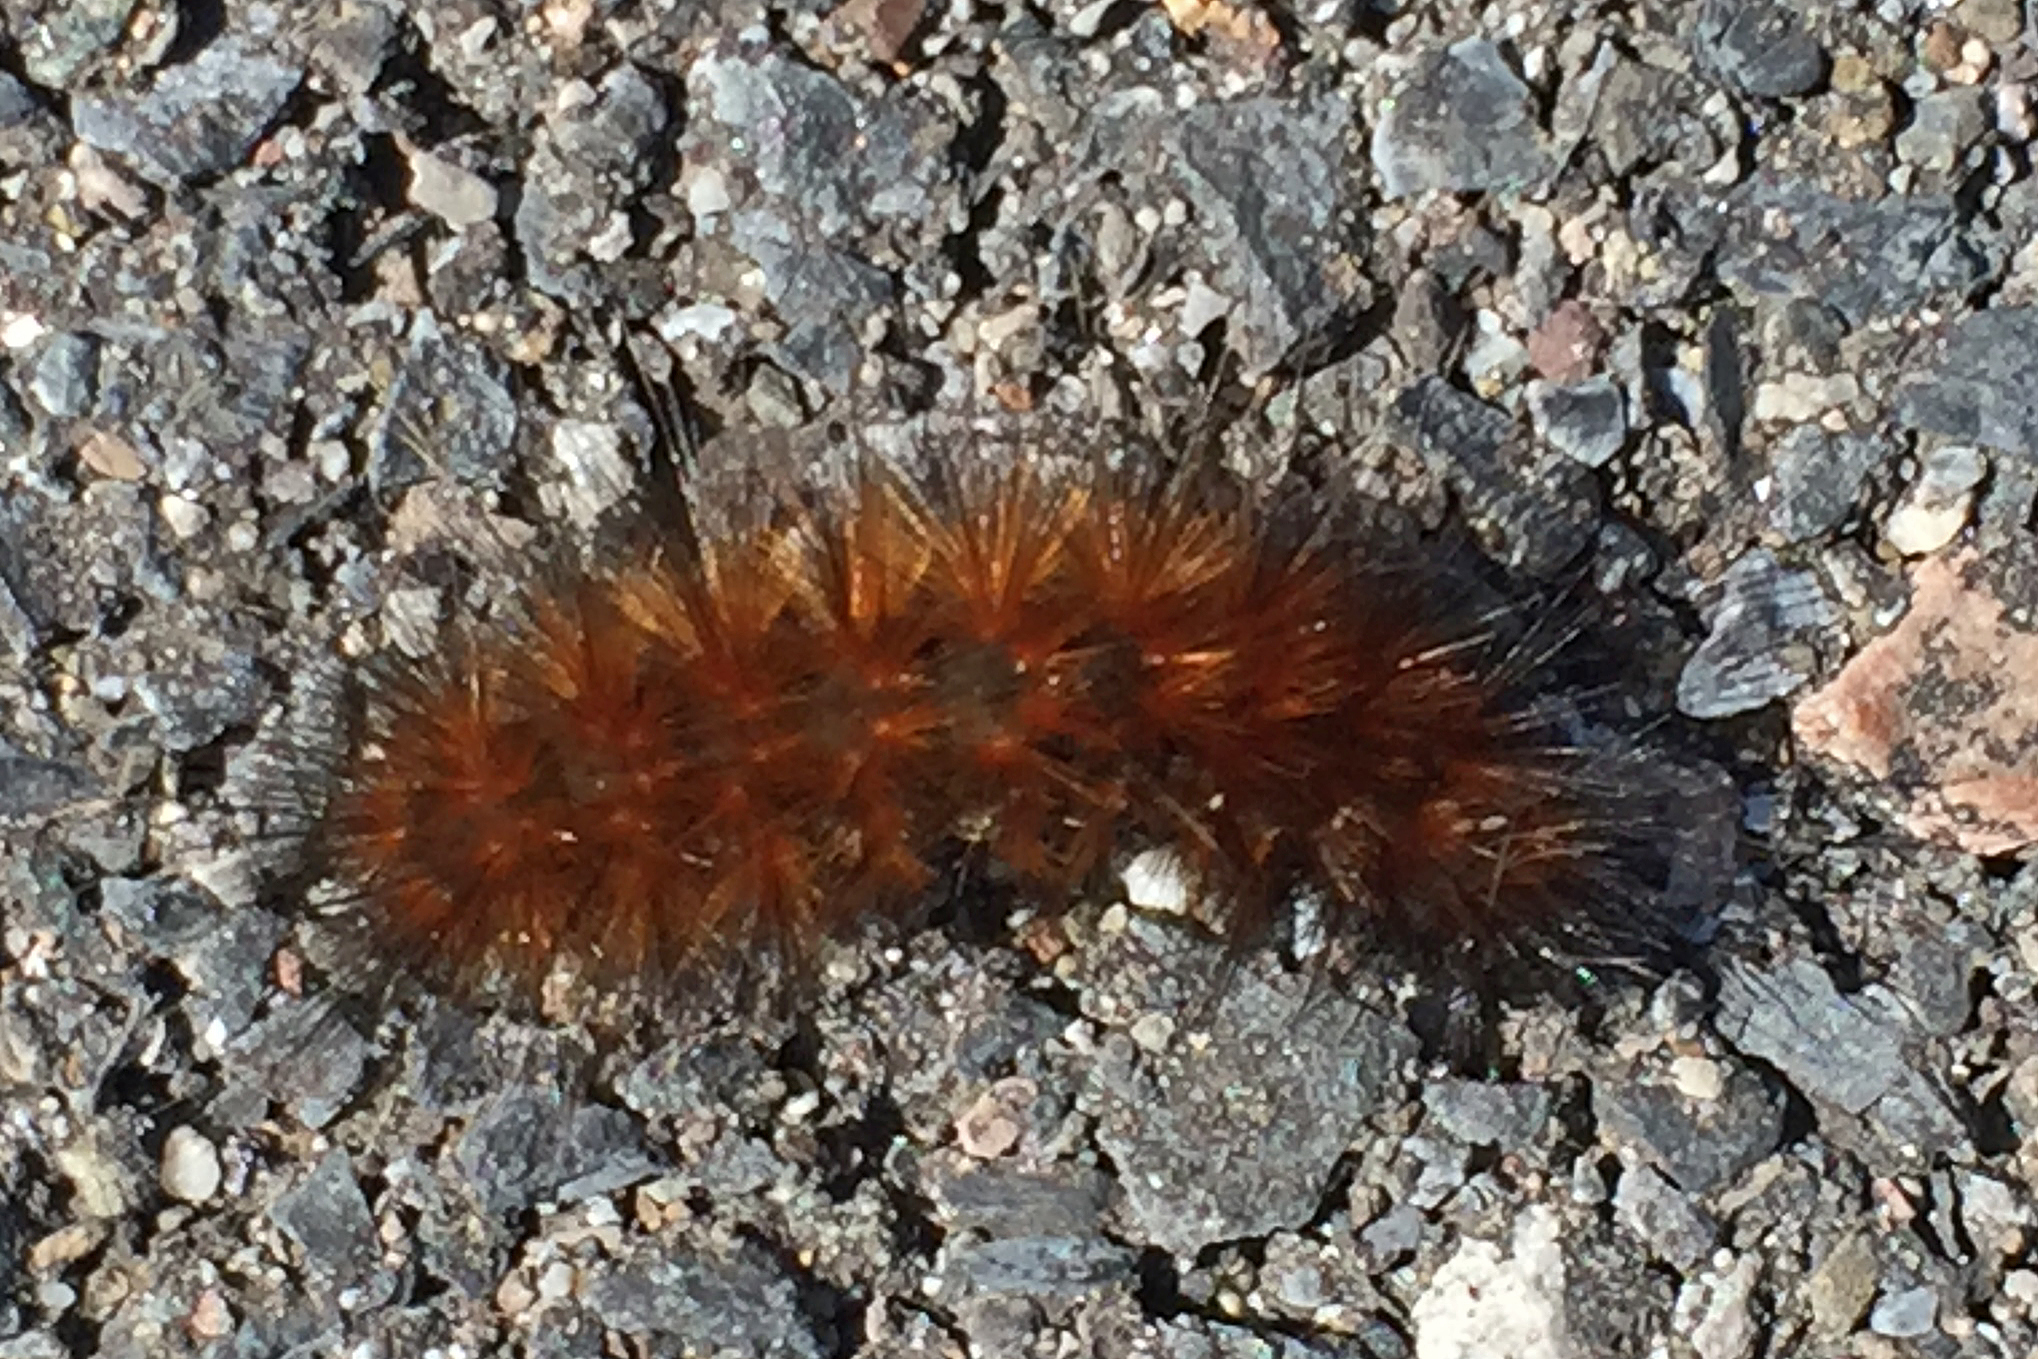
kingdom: Animalia
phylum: Arthropoda
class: Insecta
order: Lepidoptera
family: Erebidae
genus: Spilosoma
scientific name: Spilosoma virginica
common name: Virginia tiger moth
